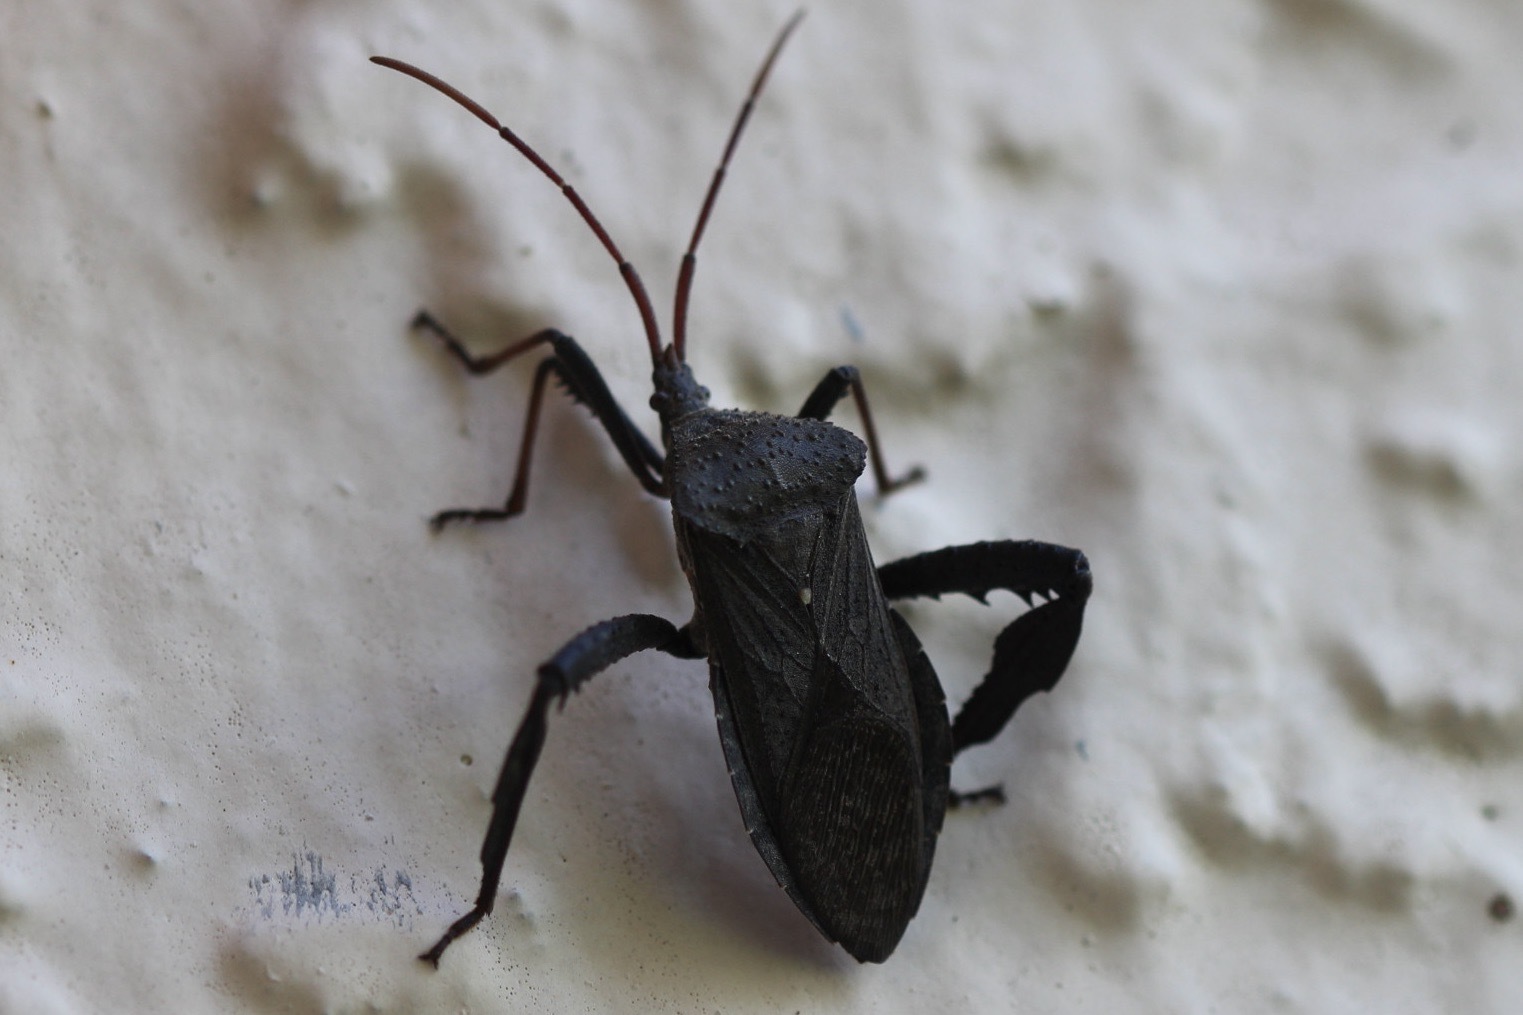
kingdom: Animalia
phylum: Arthropoda
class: Insecta
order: Hemiptera
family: Coreidae
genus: Acanthocephala
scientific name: Acanthocephala femorata
